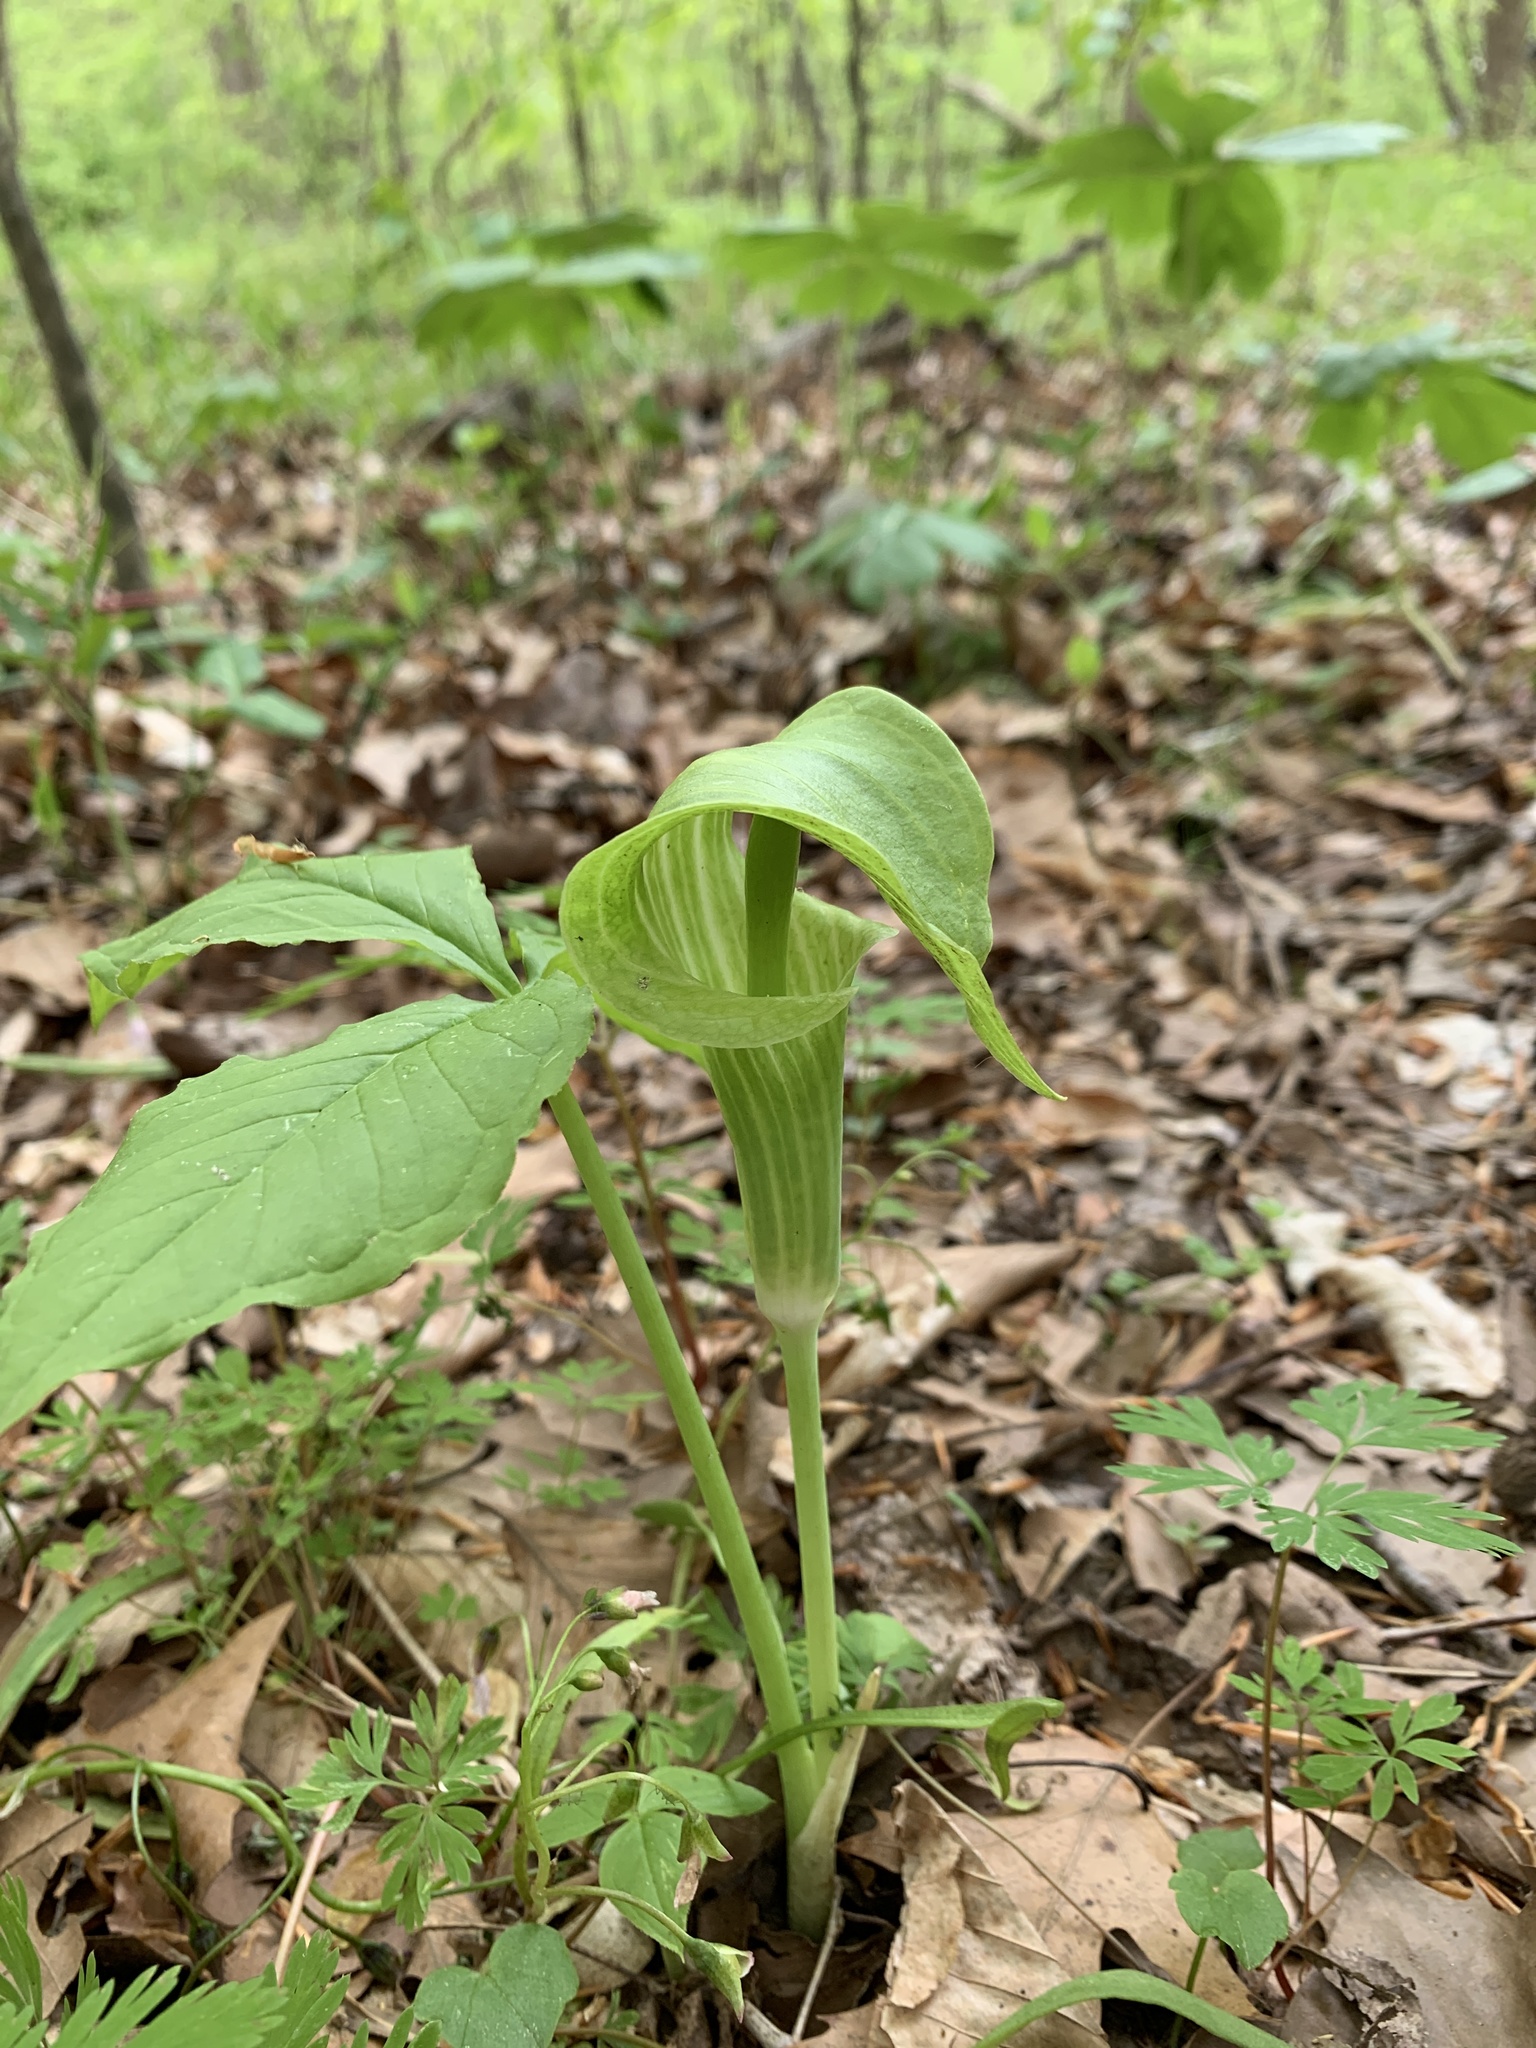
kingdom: Plantae
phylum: Tracheophyta
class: Liliopsida
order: Alismatales
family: Araceae
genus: Arisaema
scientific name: Arisaema triphyllum
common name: Jack-in-the-pulpit
